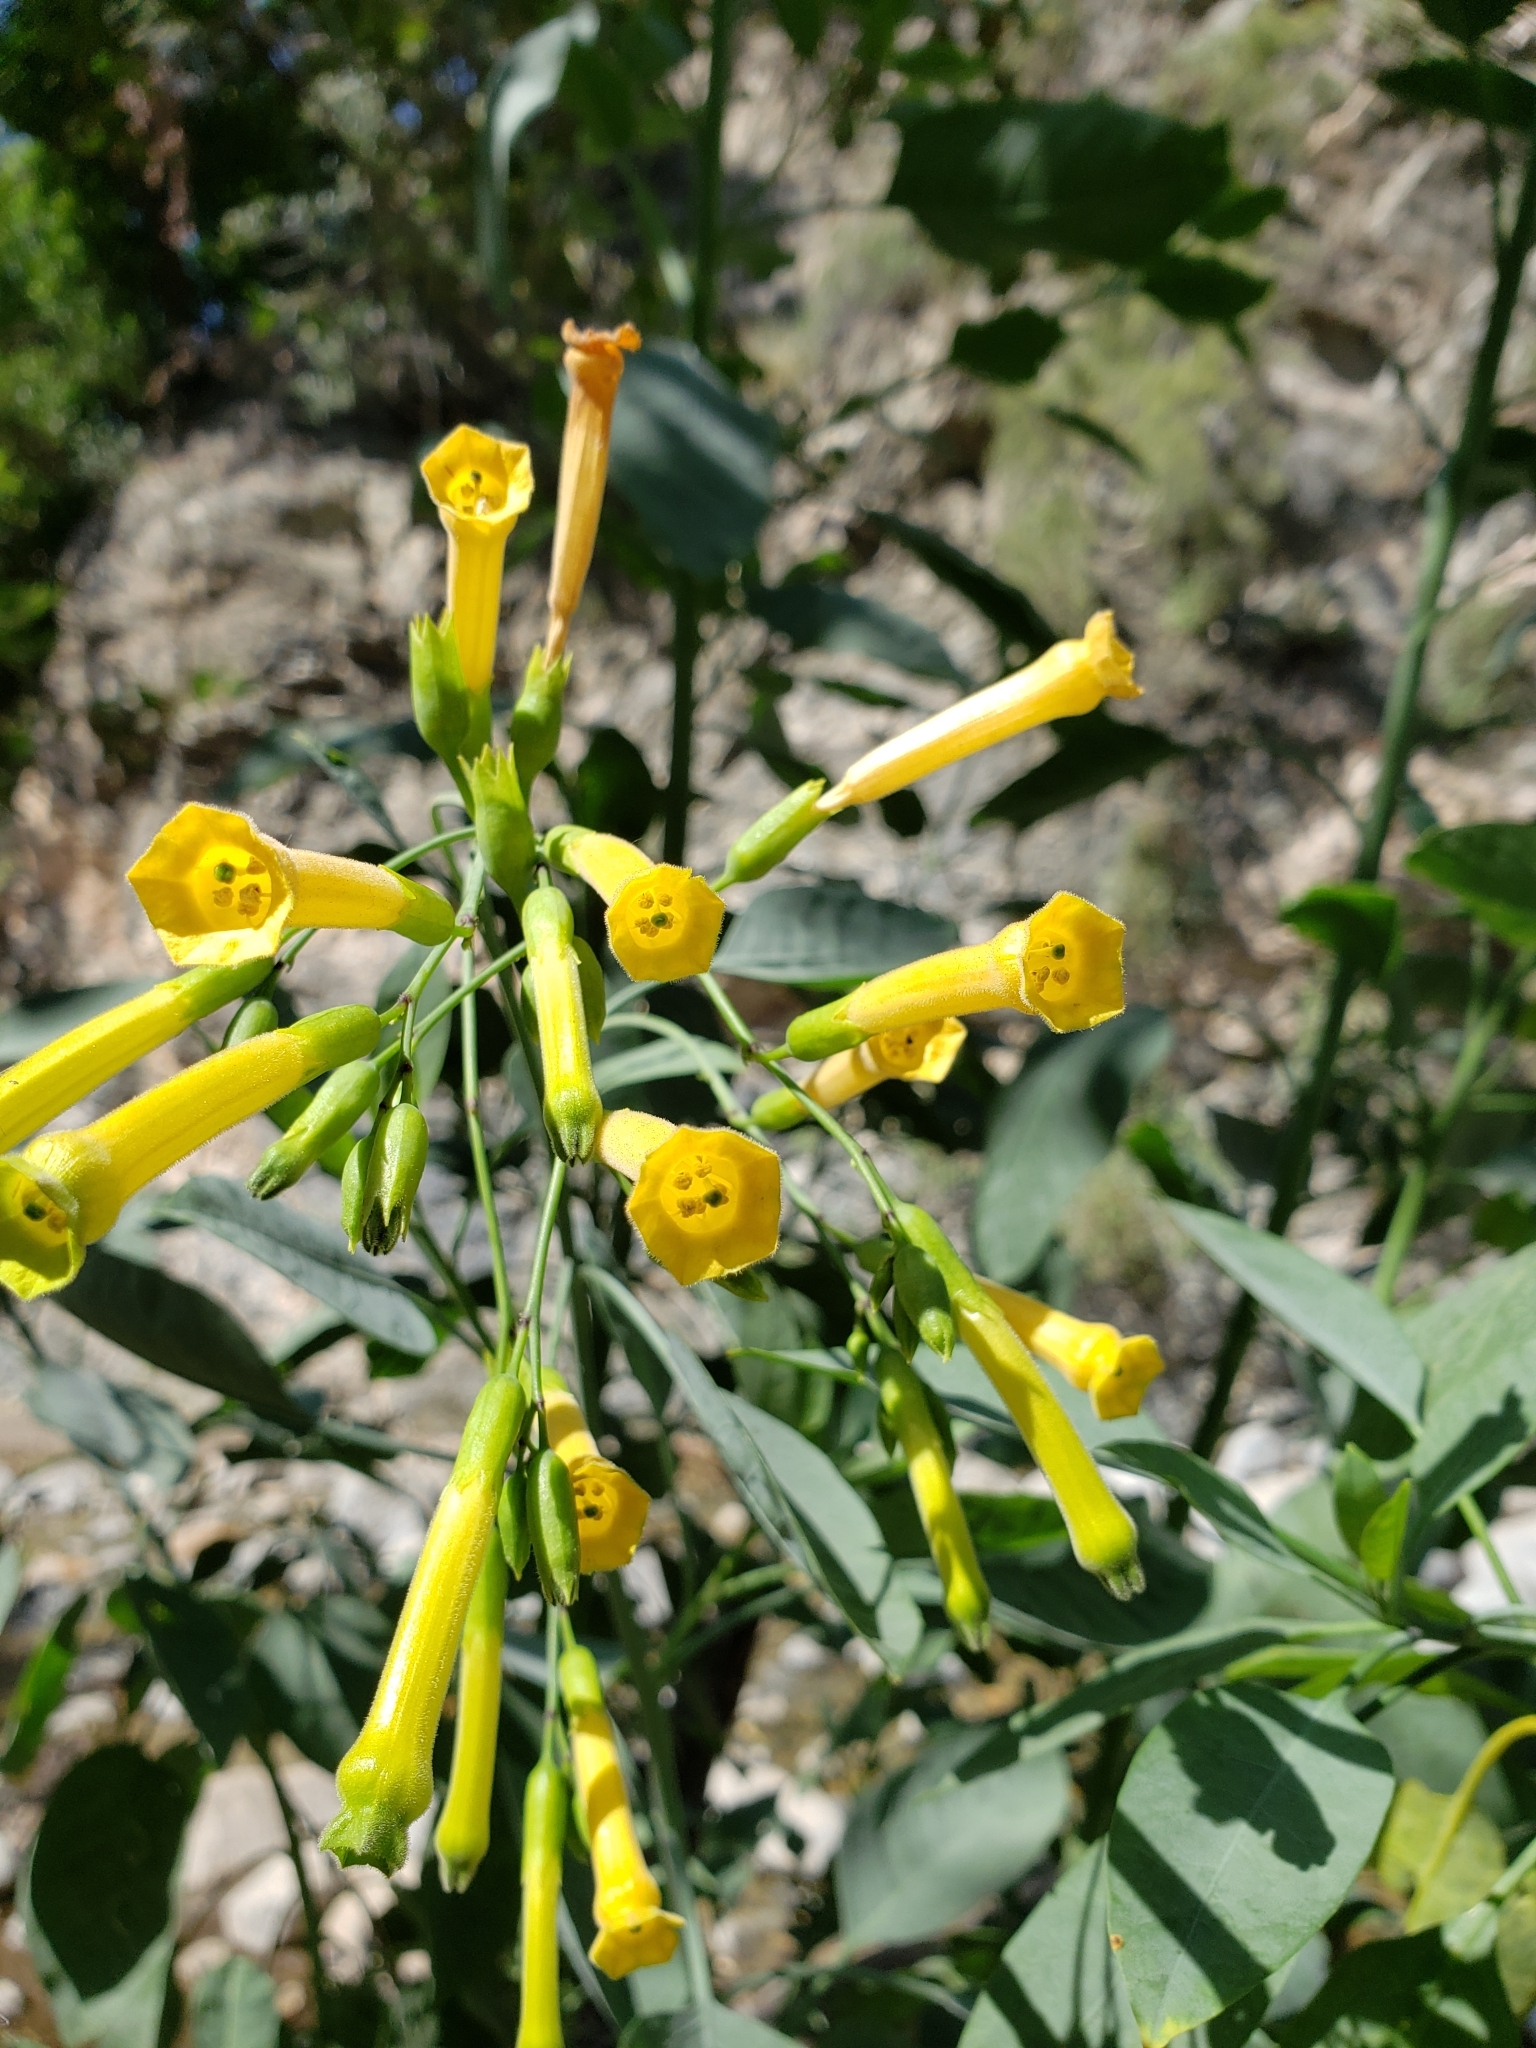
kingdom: Plantae
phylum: Tracheophyta
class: Magnoliopsida
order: Solanales
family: Solanaceae
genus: Nicotiana
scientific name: Nicotiana glauca
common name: Tree tobacco
